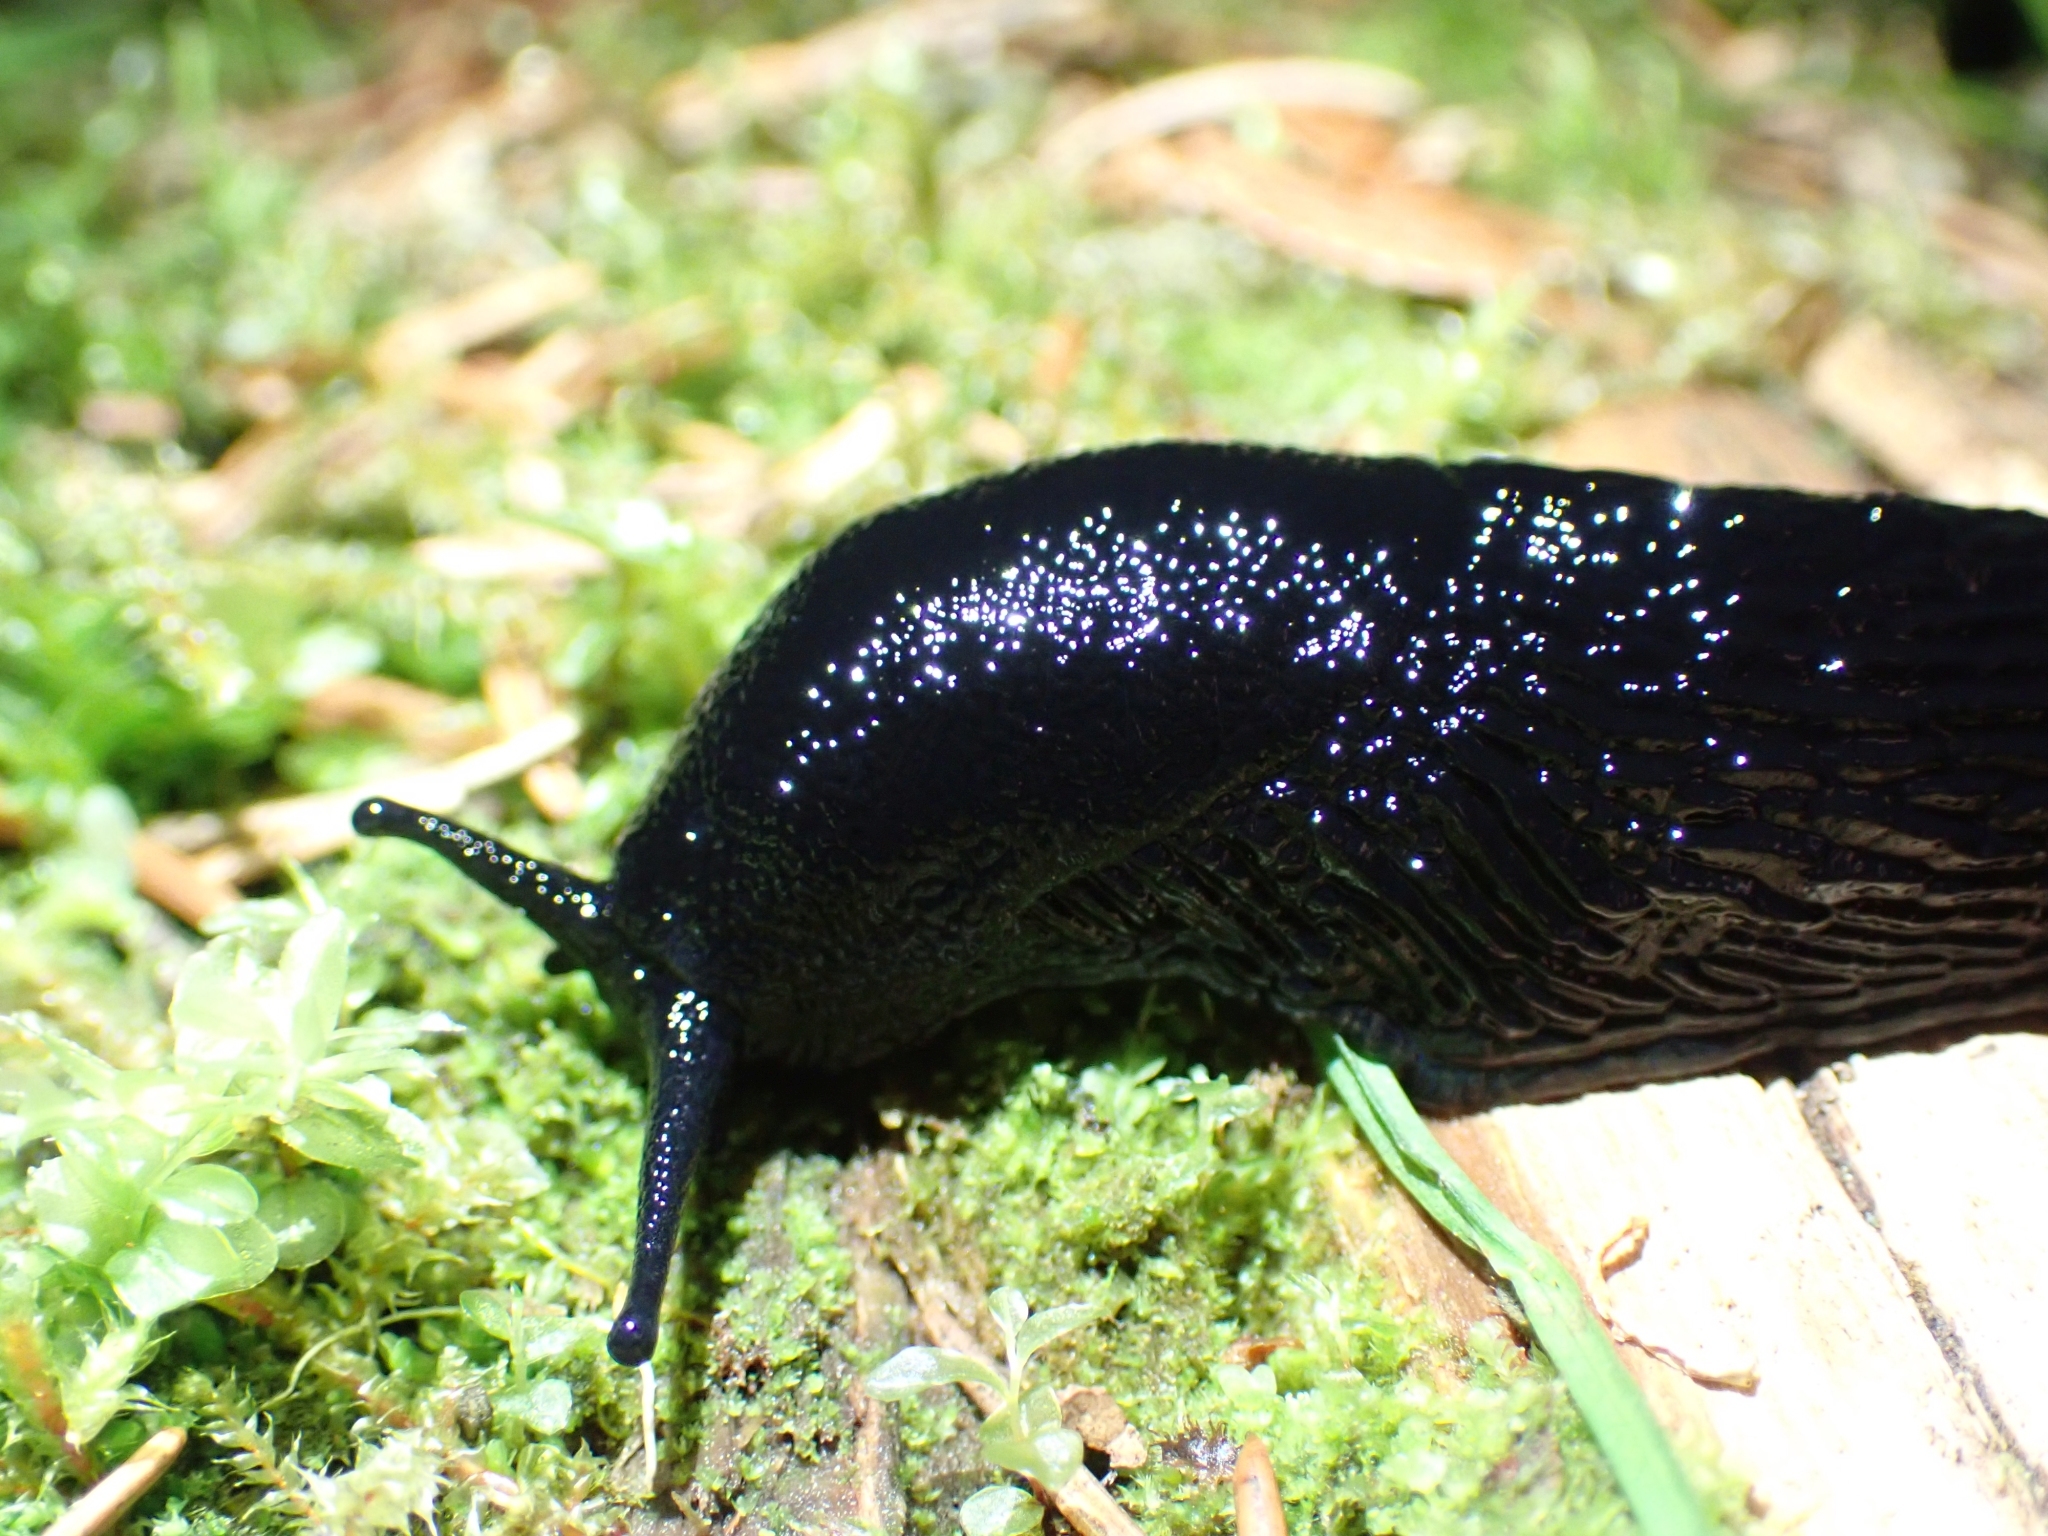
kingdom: Animalia
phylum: Mollusca
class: Gastropoda
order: Stylommatophora
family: Arionidae
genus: Arion
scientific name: Arion
